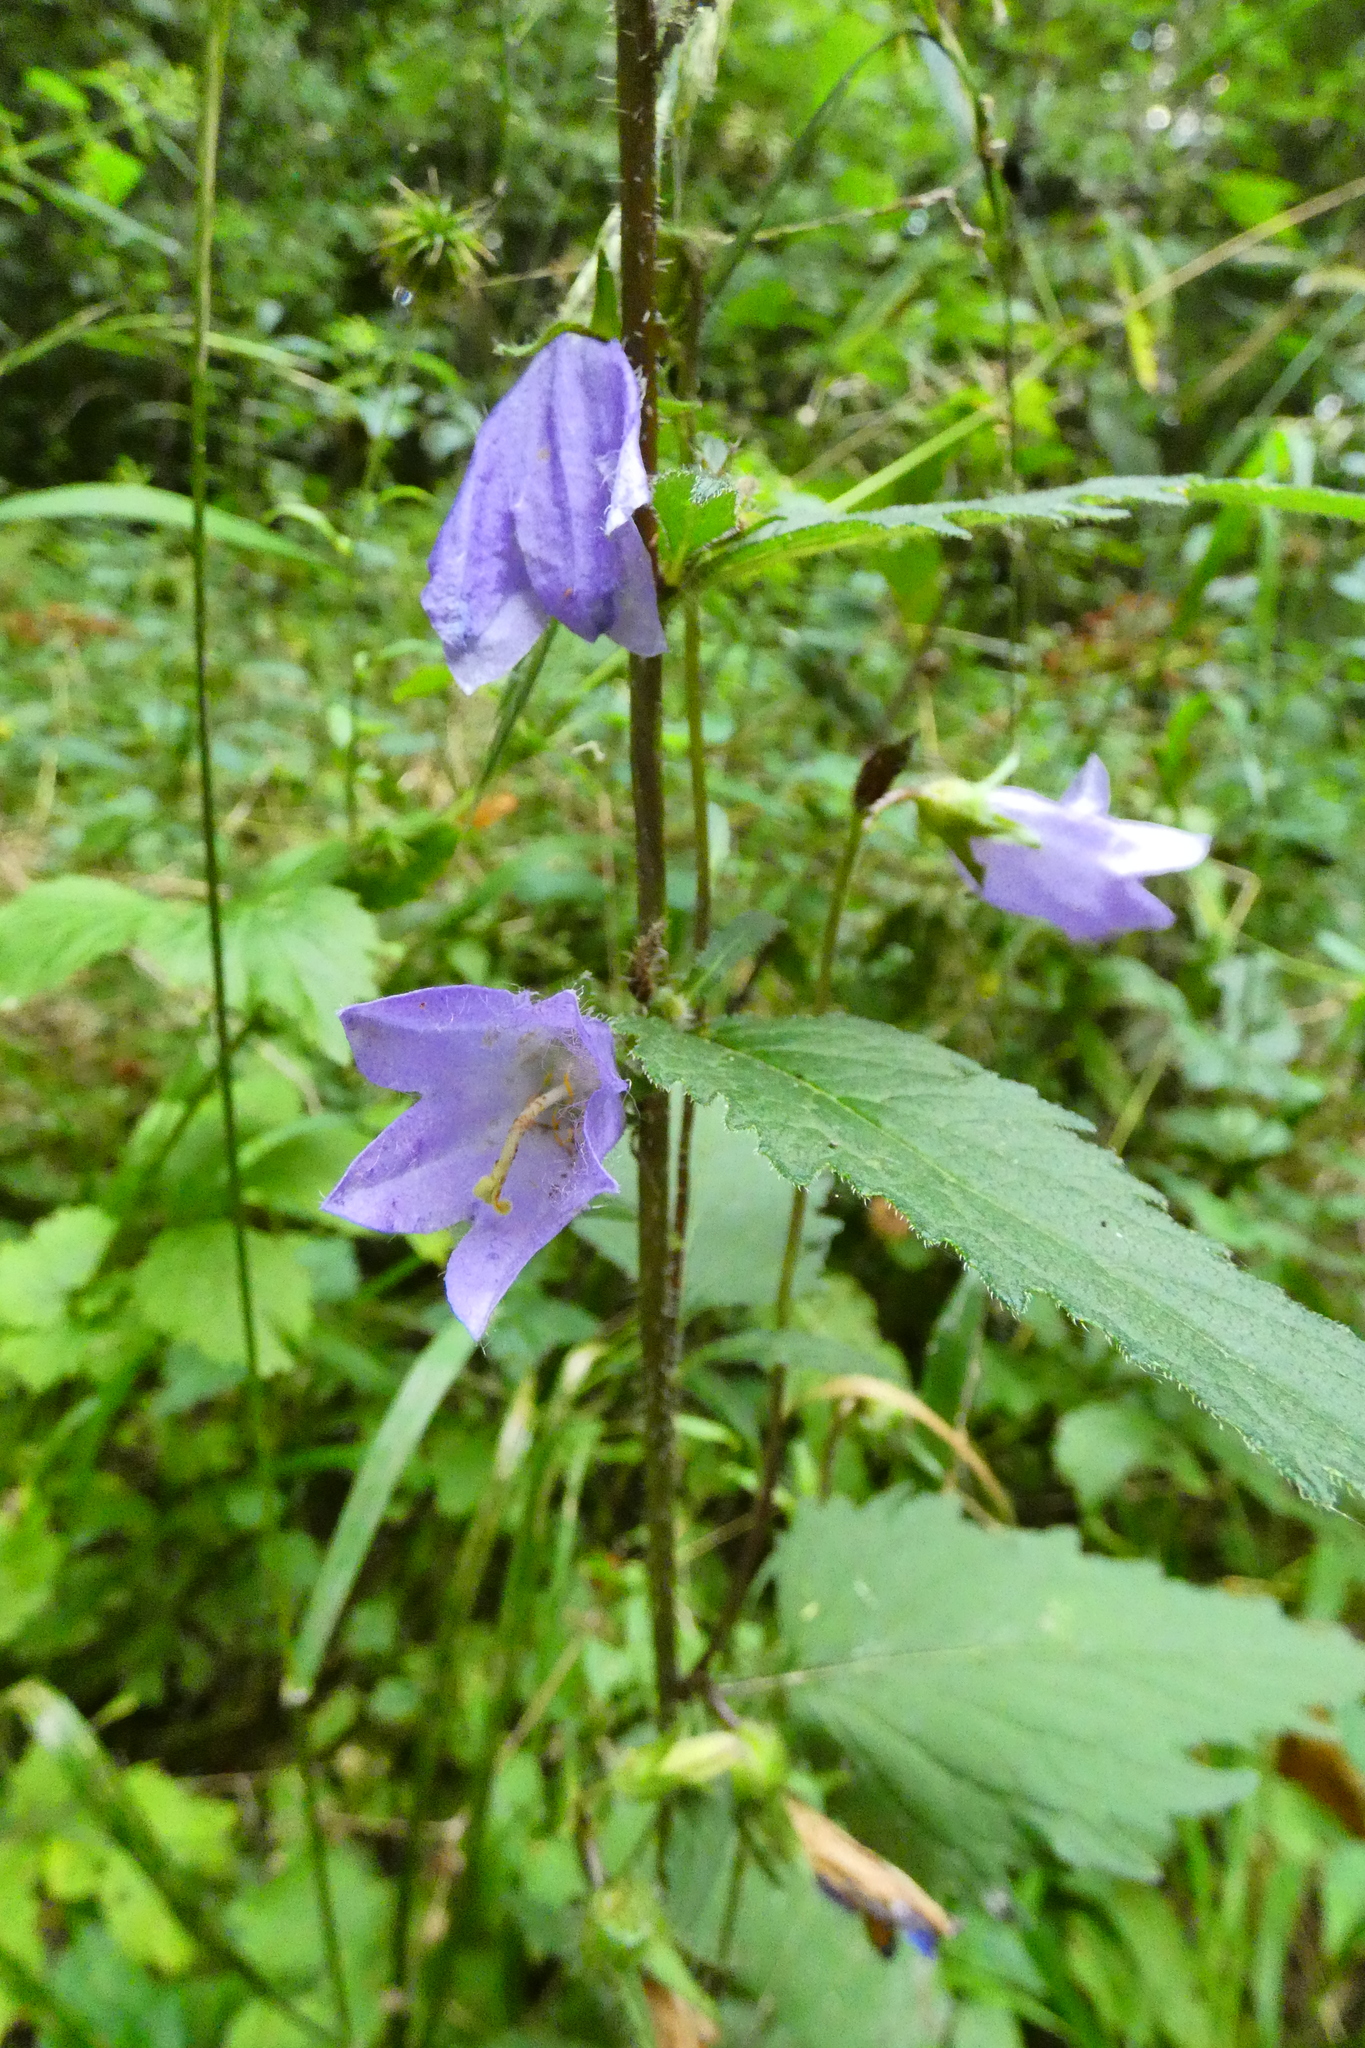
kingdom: Plantae
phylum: Tracheophyta
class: Magnoliopsida
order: Asterales
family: Campanulaceae
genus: Campanula
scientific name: Campanula trachelium
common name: Nettle-leaved bellflower
